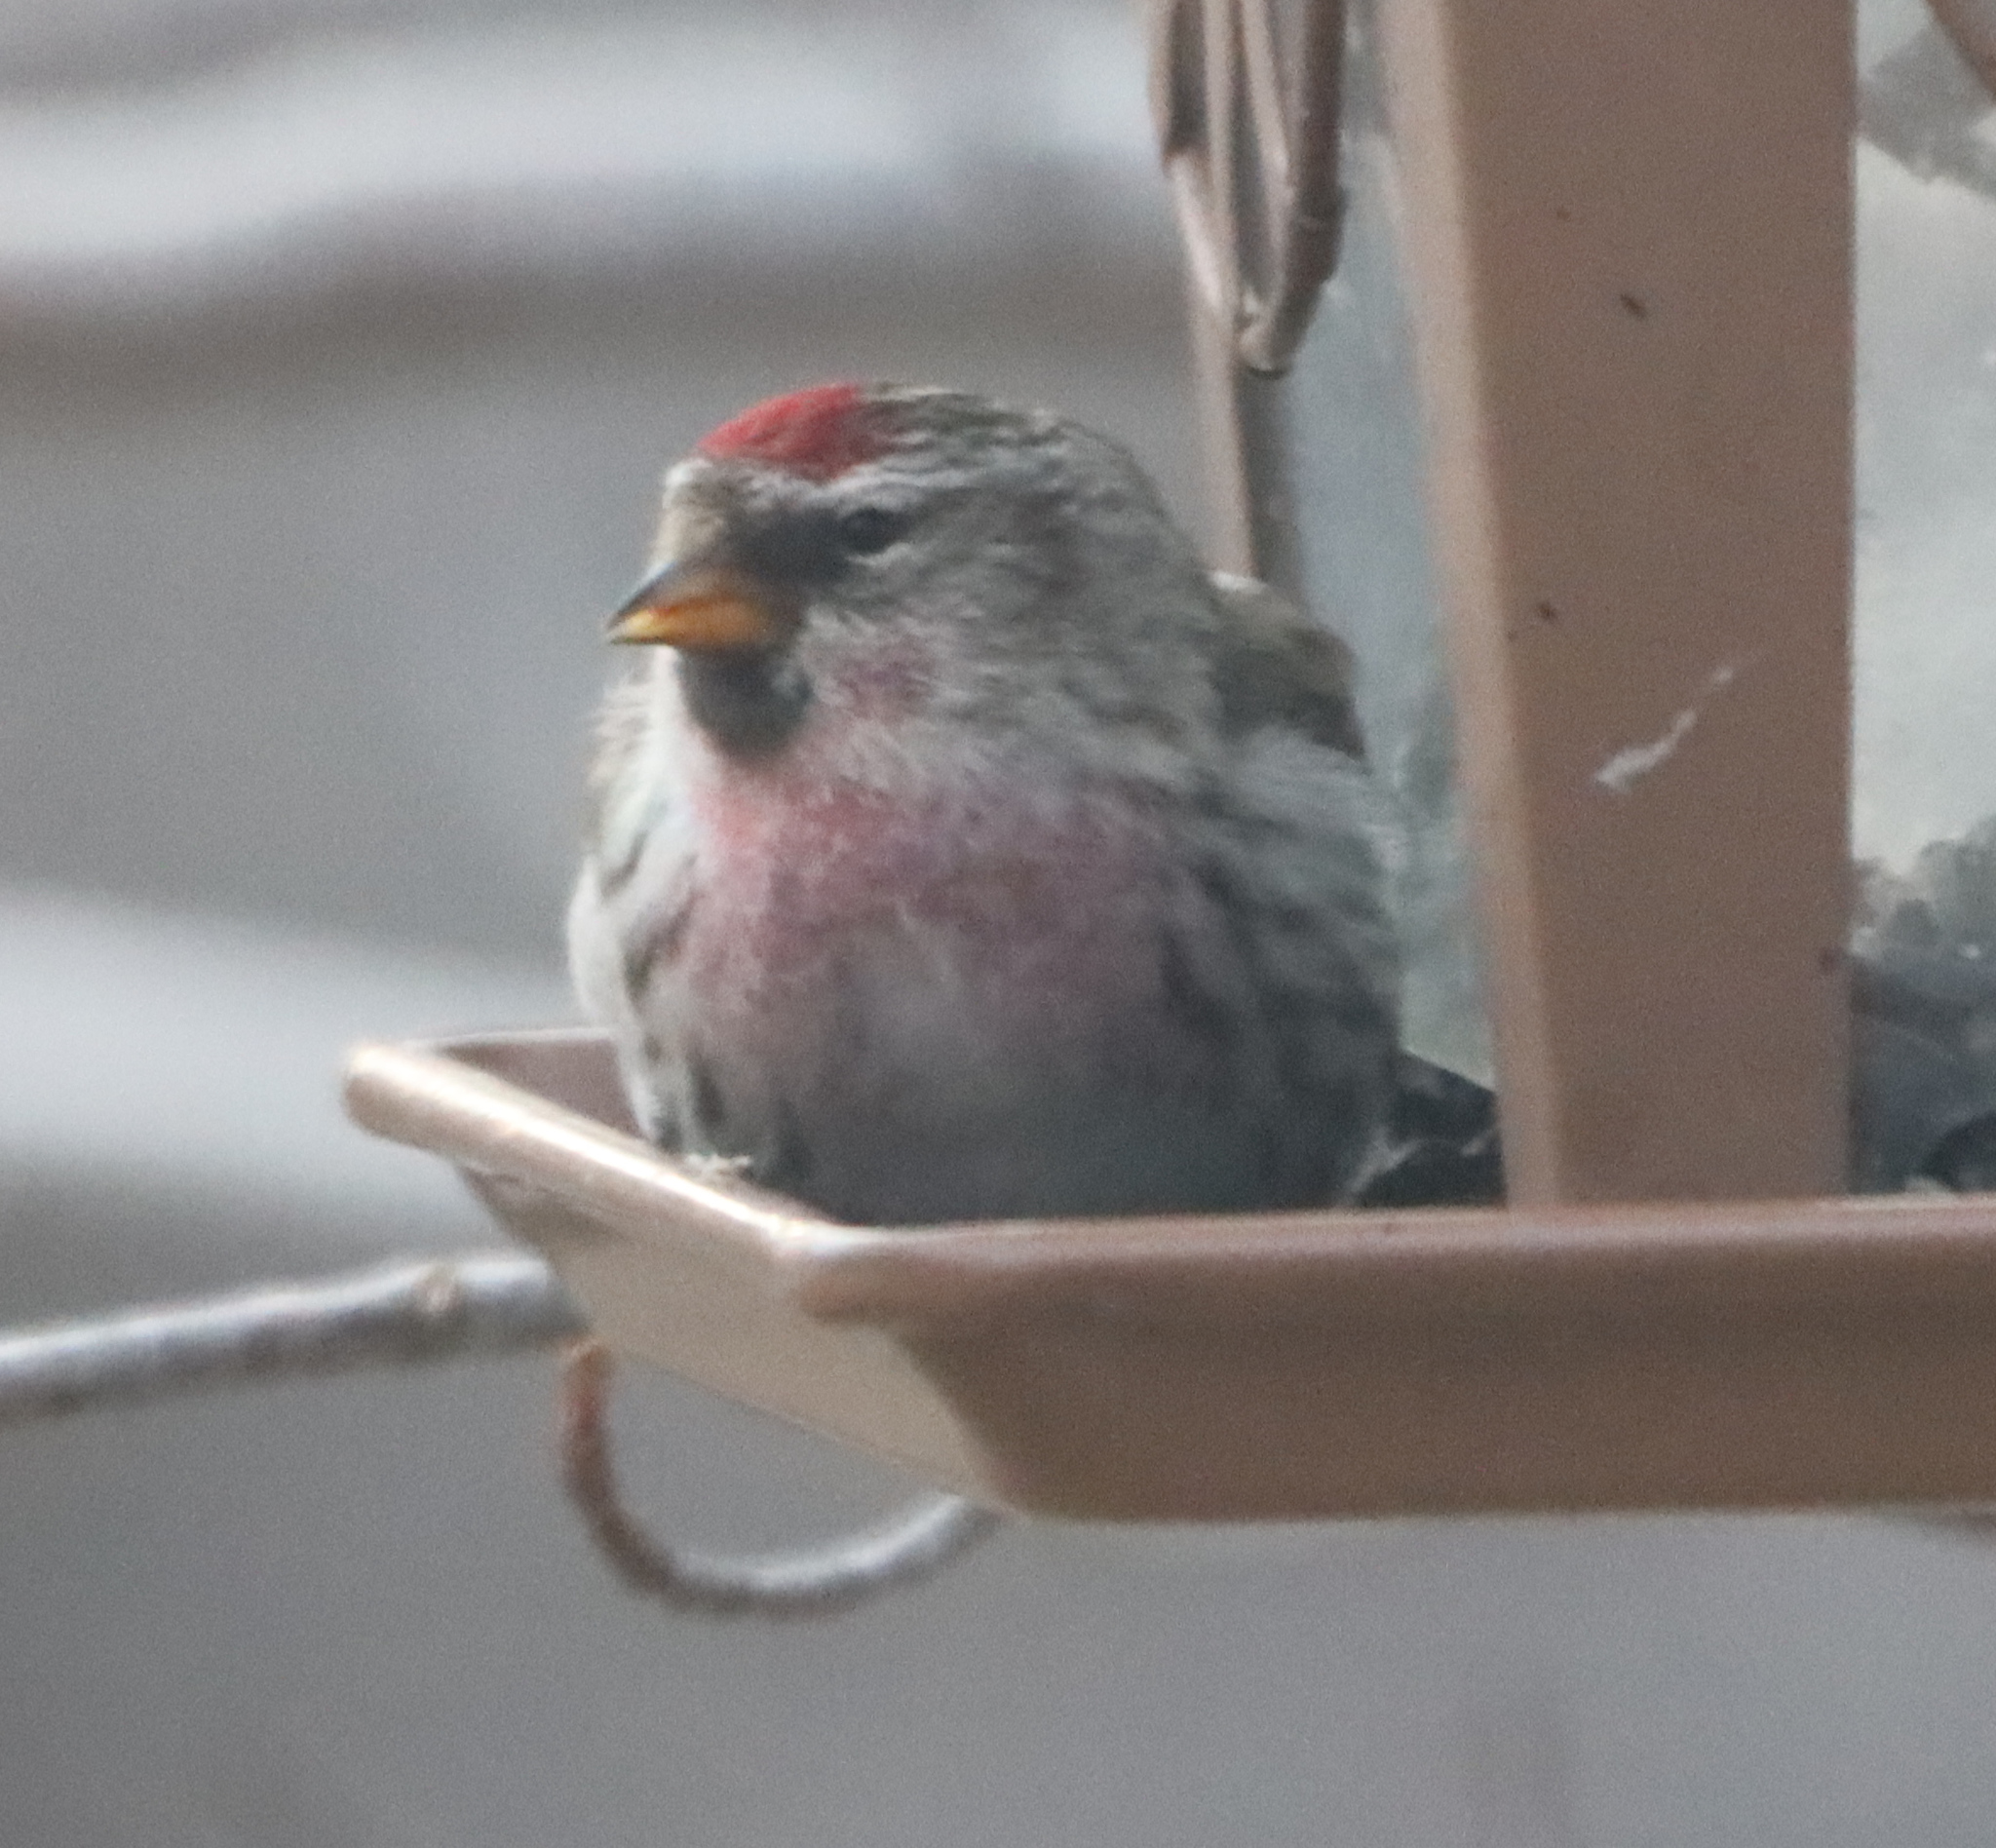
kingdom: Animalia
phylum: Chordata
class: Aves
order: Passeriformes
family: Fringillidae
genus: Acanthis
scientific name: Acanthis flammea
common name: Common redpoll
